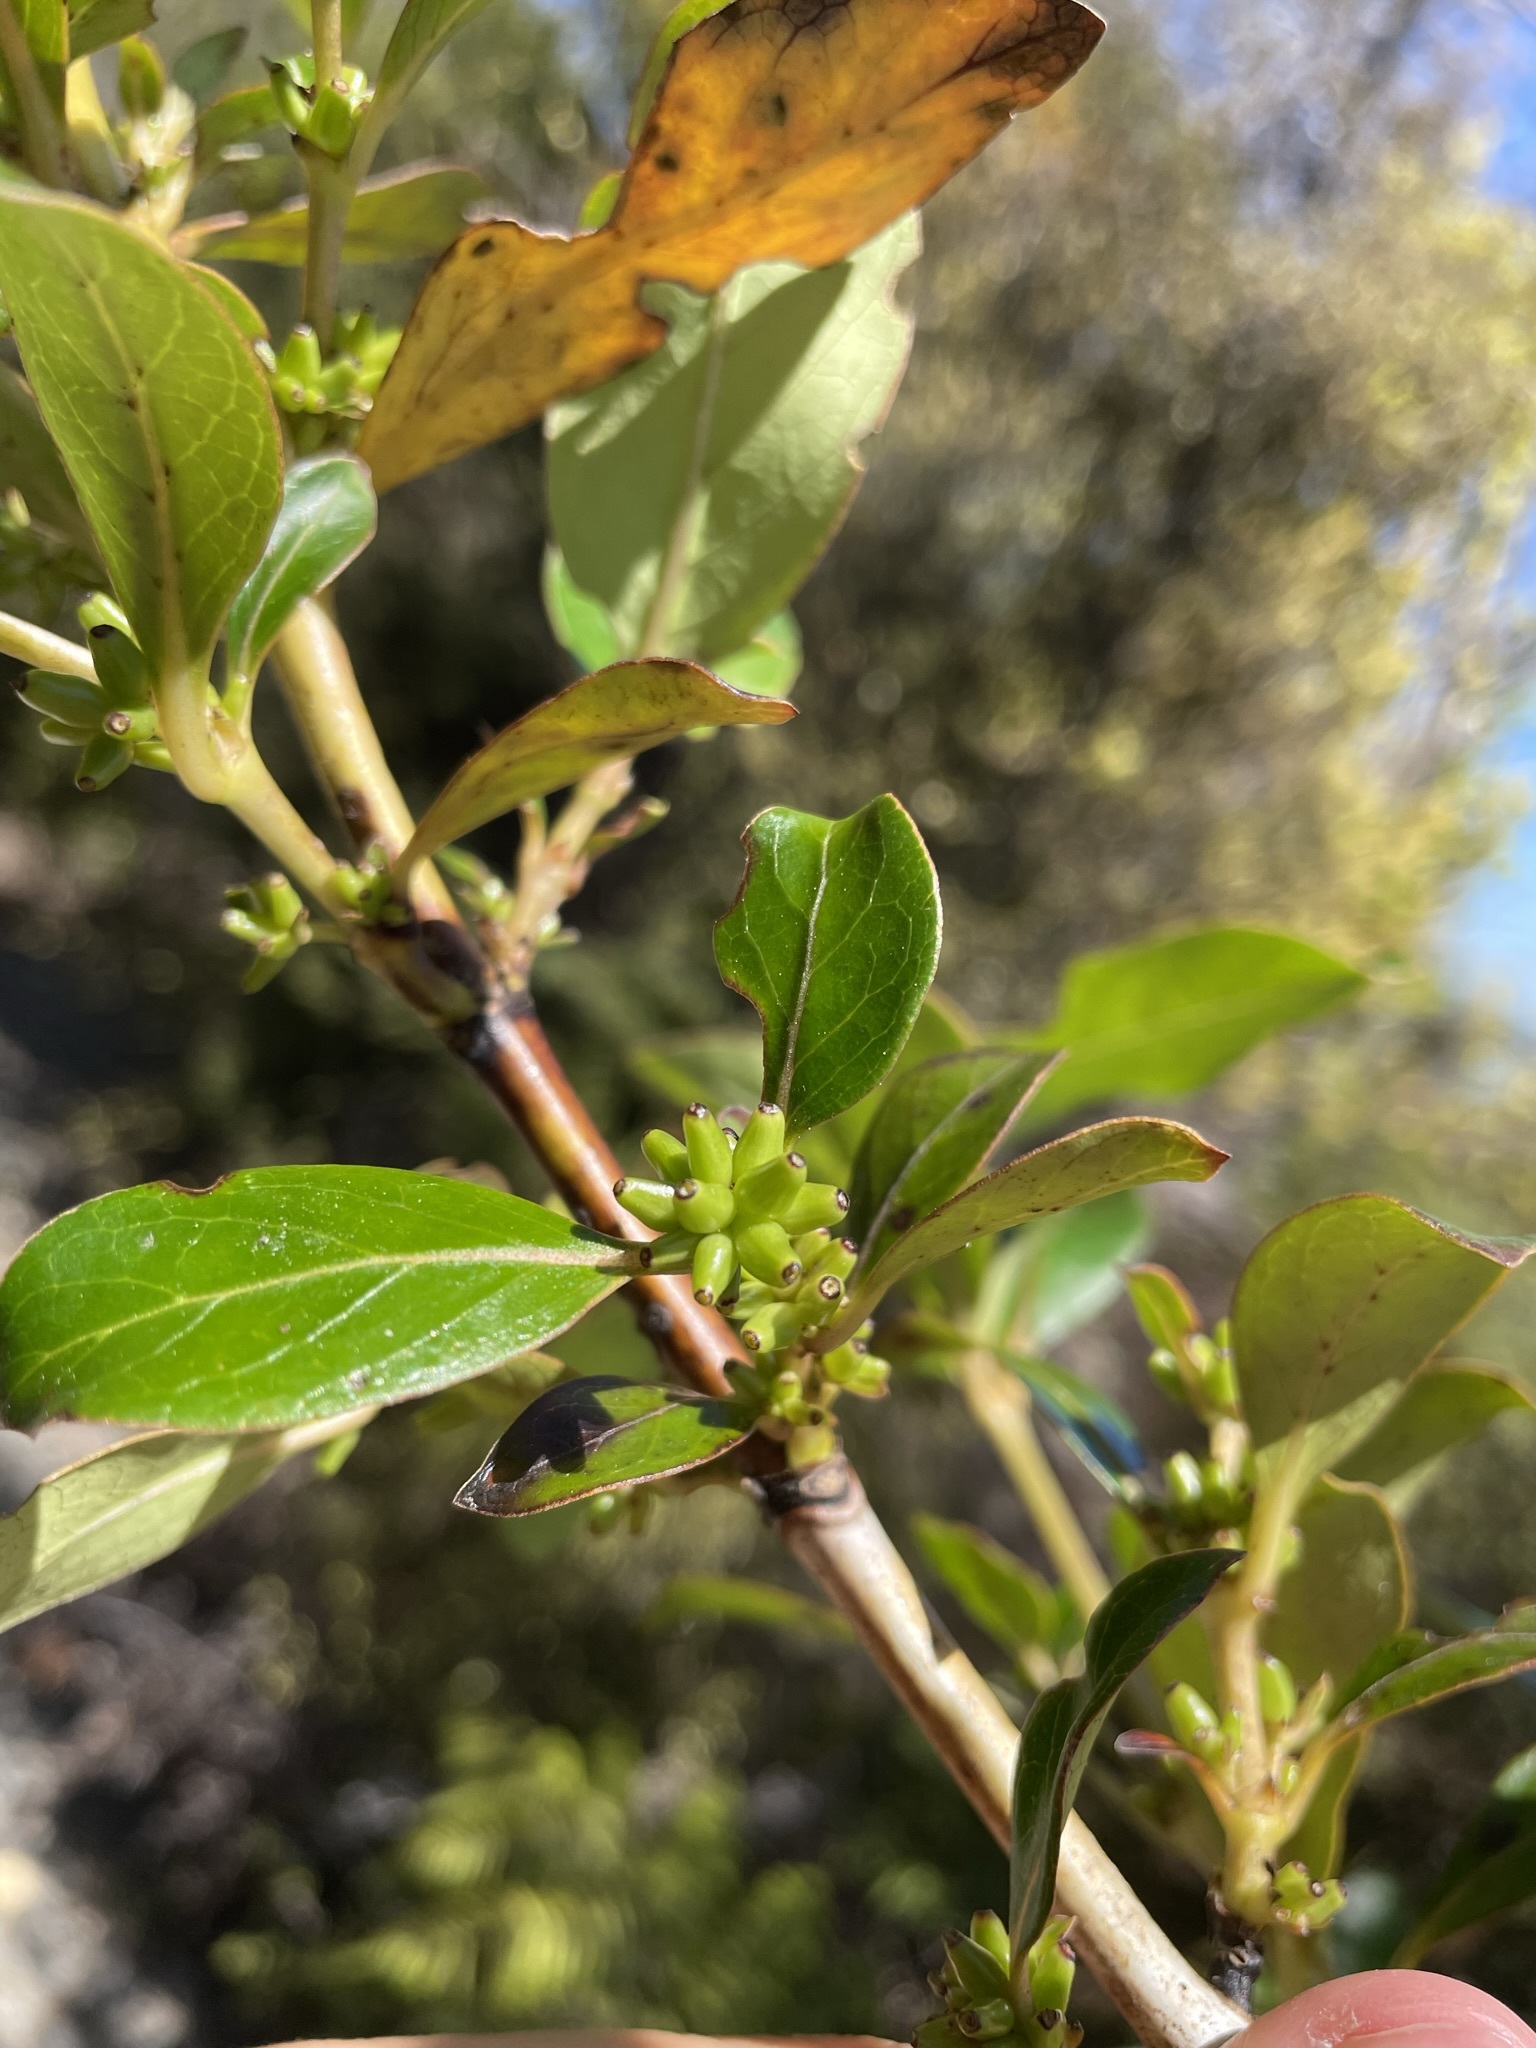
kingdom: Plantae
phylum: Tracheophyta
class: Magnoliopsida
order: Gentianales
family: Rubiaceae
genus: Coprosma
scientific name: Coprosma robusta
